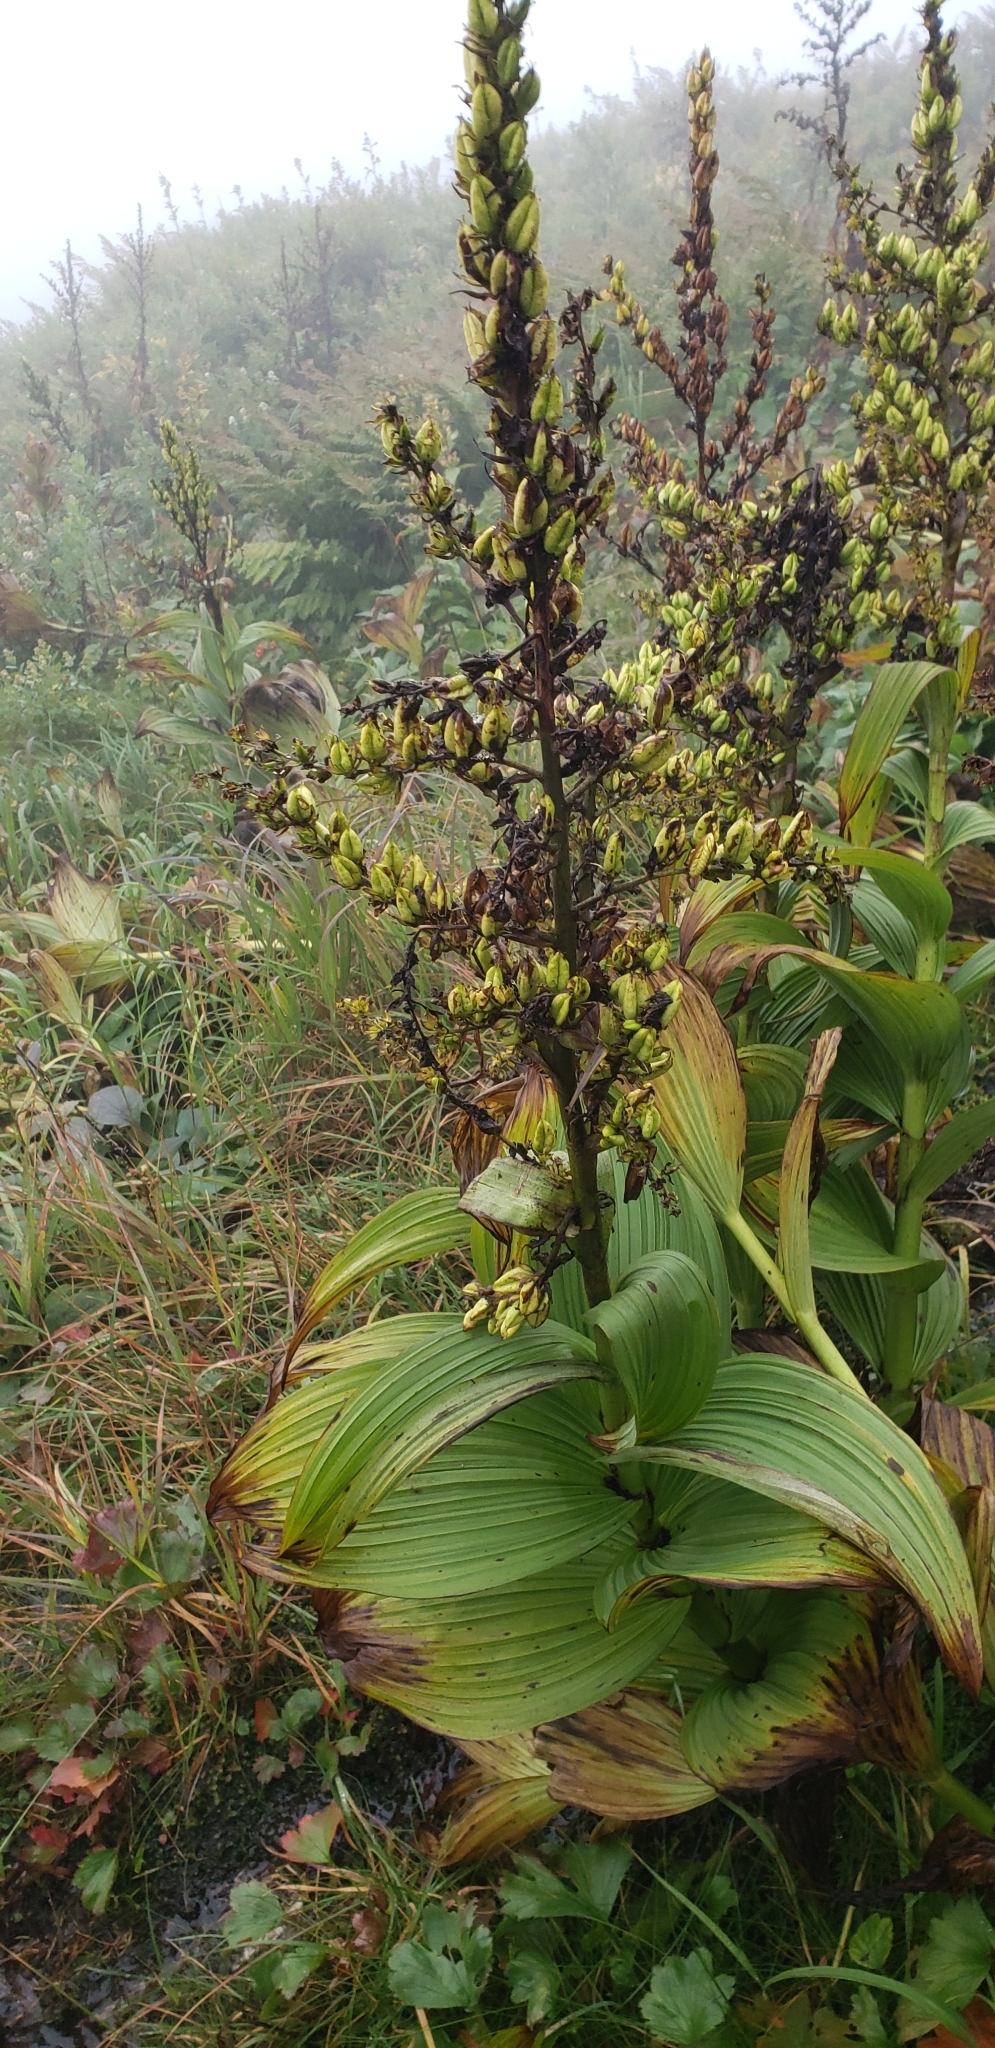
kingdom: Plantae
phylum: Tracheophyta
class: Liliopsida
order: Liliales
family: Melanthiaceae
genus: Veratrum
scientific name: Veratrum viride
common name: American false hellebore
